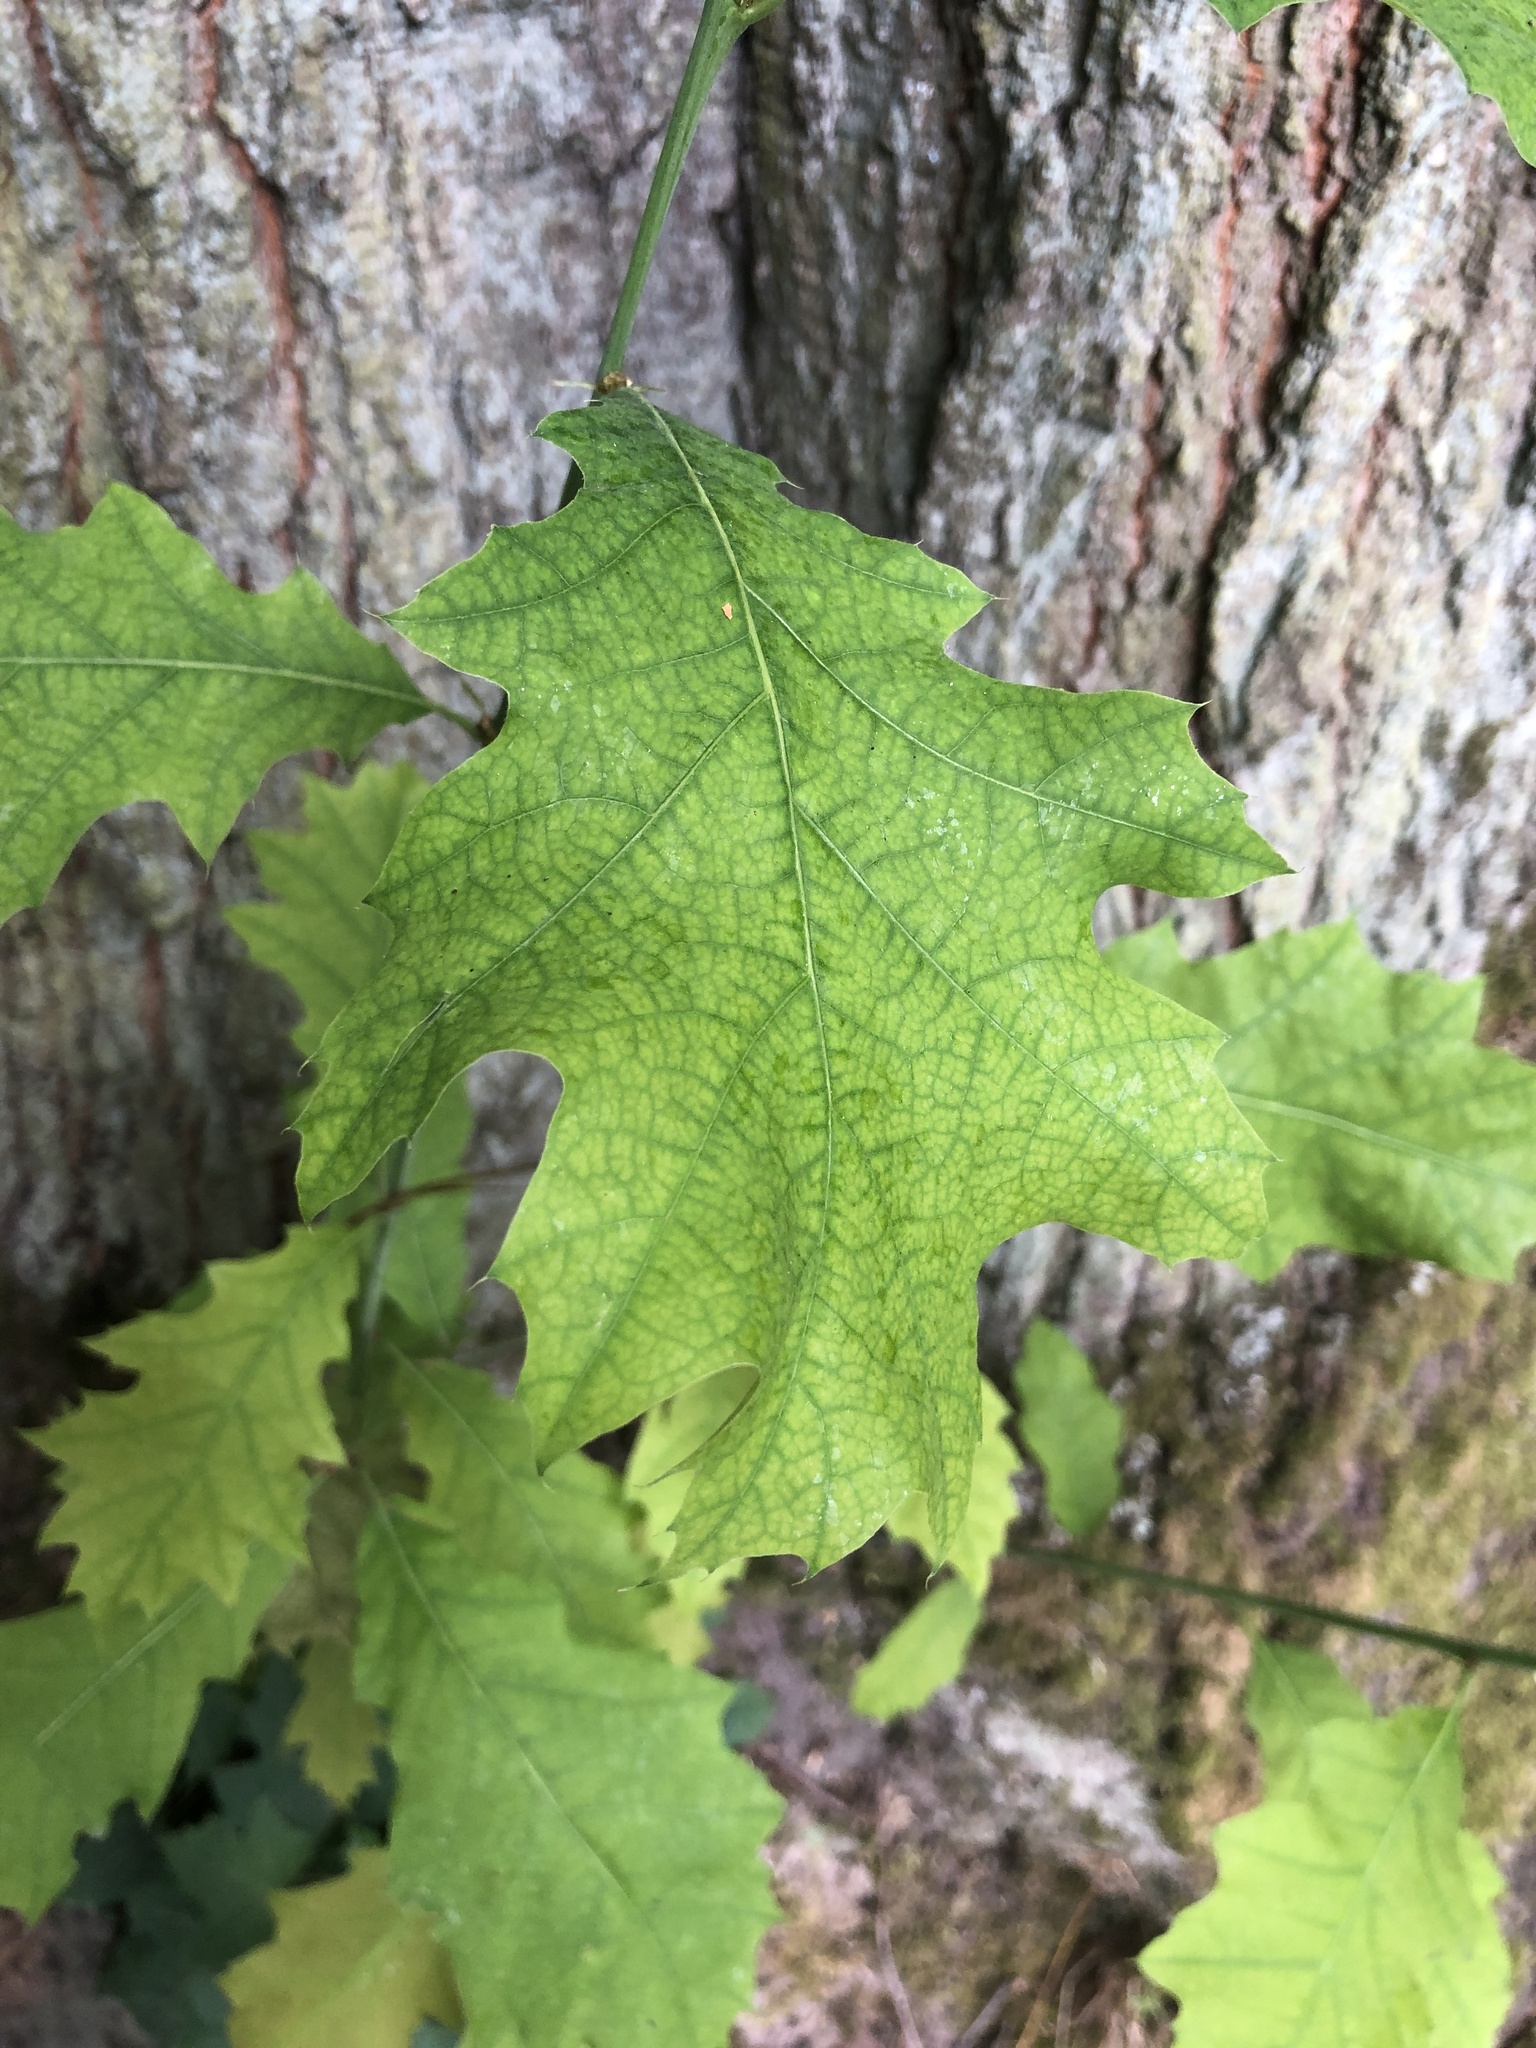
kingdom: Plantae
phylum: Tracheophyta
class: Magnoliopsida
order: Fagales
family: Fagaceae
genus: Quercus
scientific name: Quercus rubra
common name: Red oak
